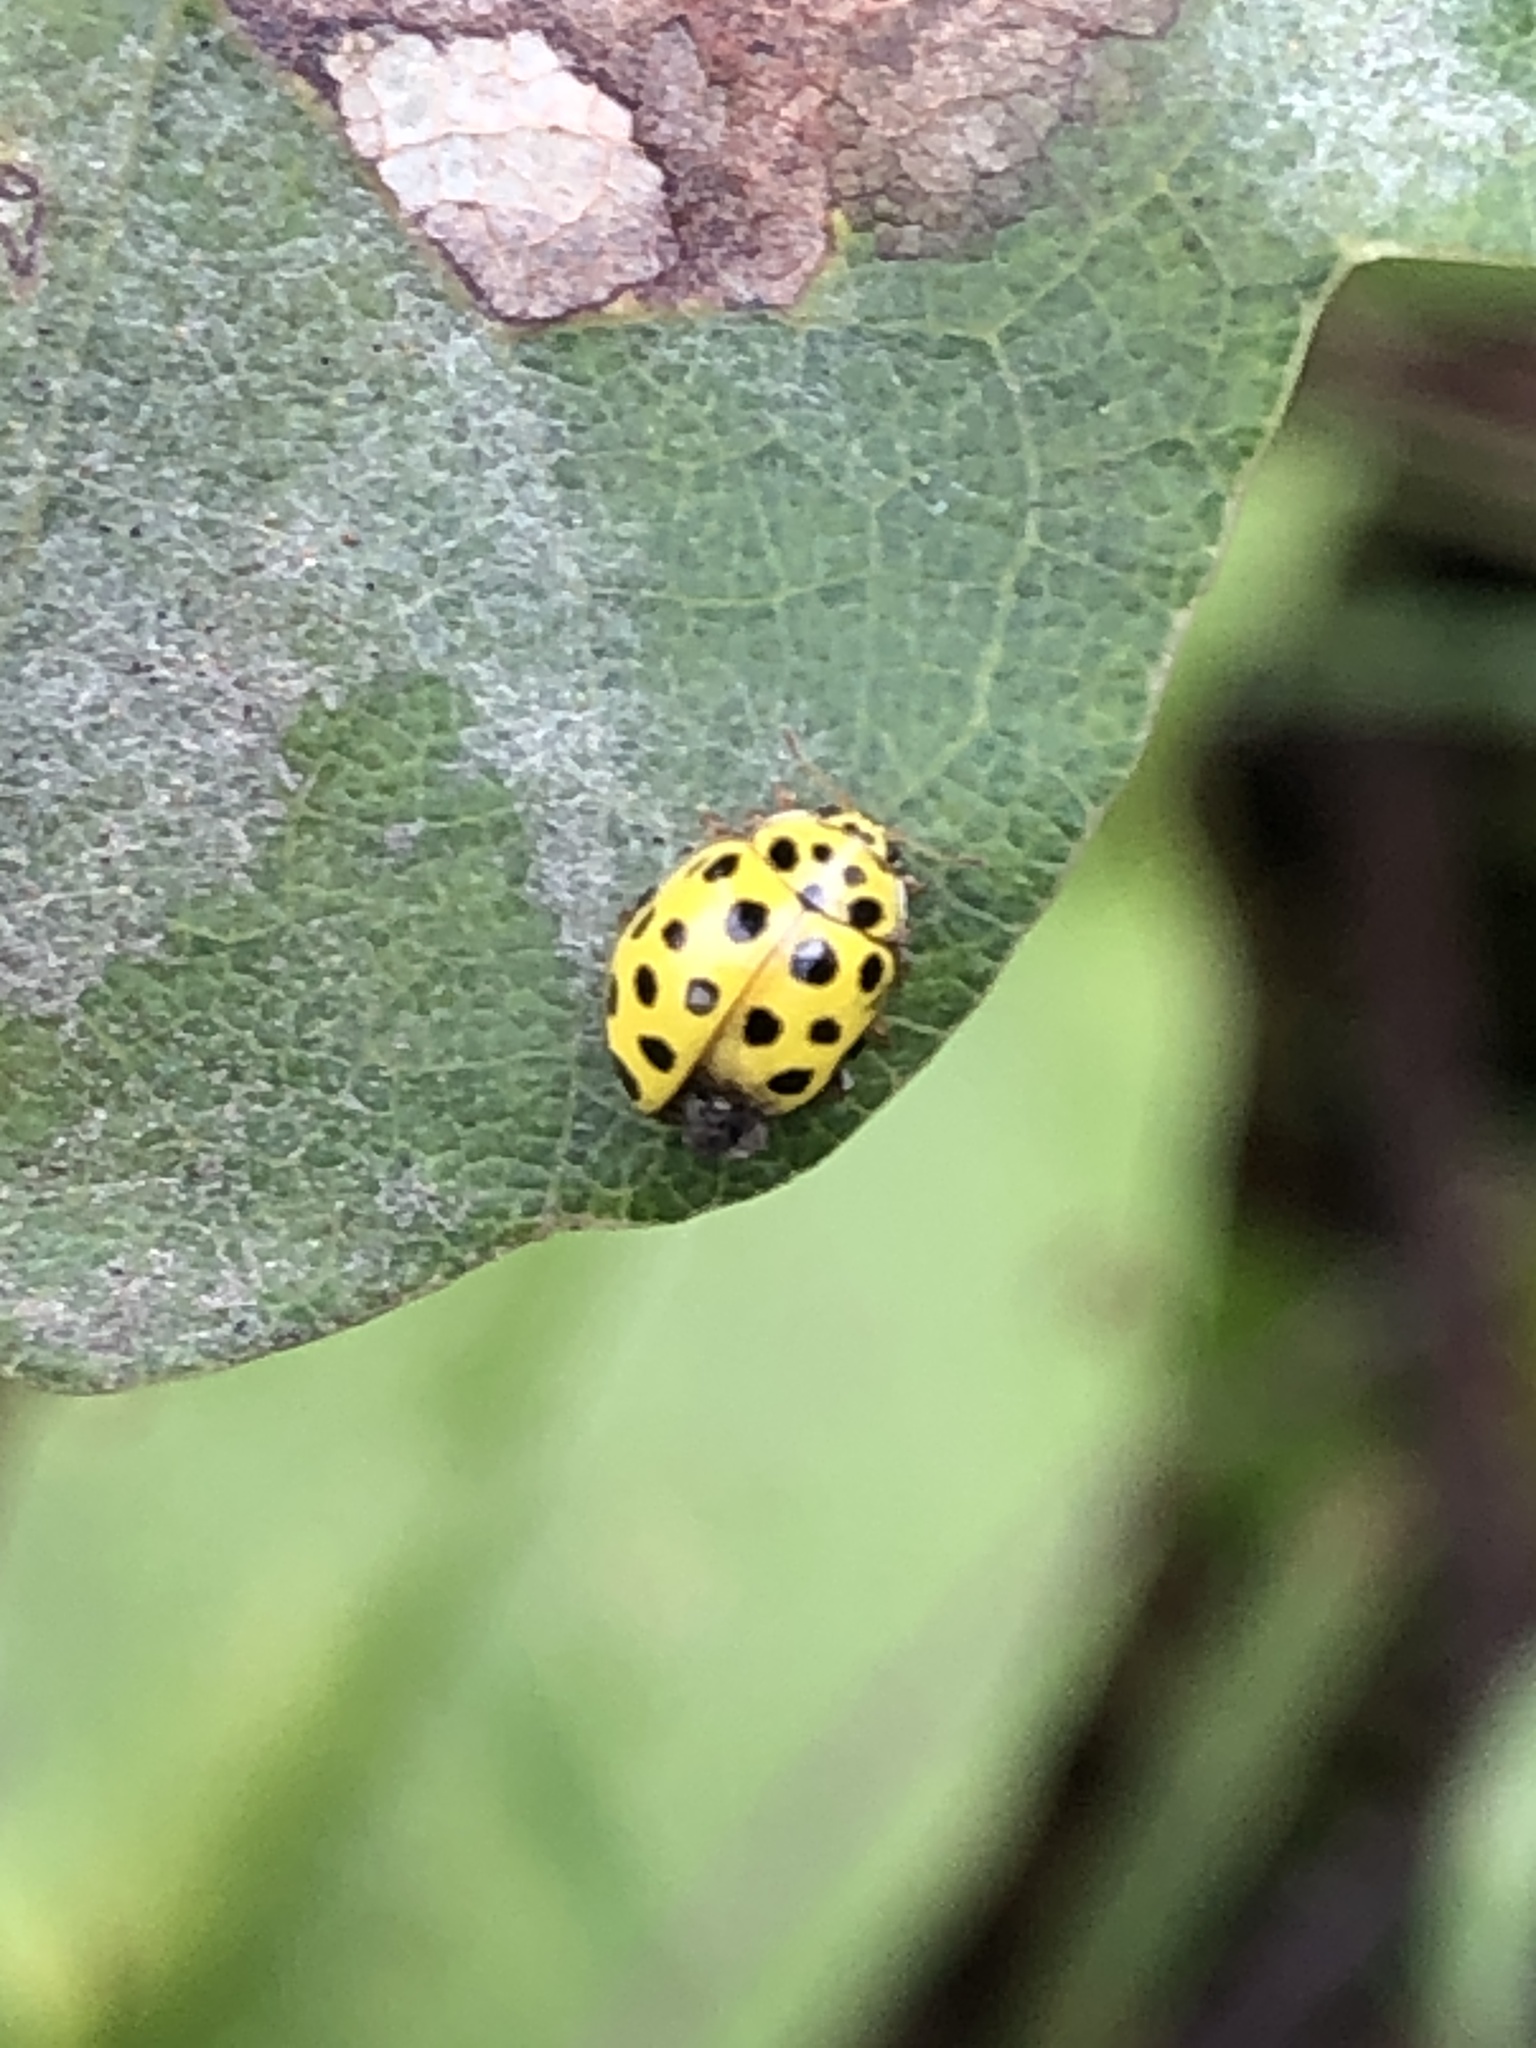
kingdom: Animalia
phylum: Arthropoda
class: Insecta
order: Coleoptera
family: Coccinellidae
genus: Psyllobora
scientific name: Psyllobora vigintiduopunctata
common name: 22-spot ladybird
